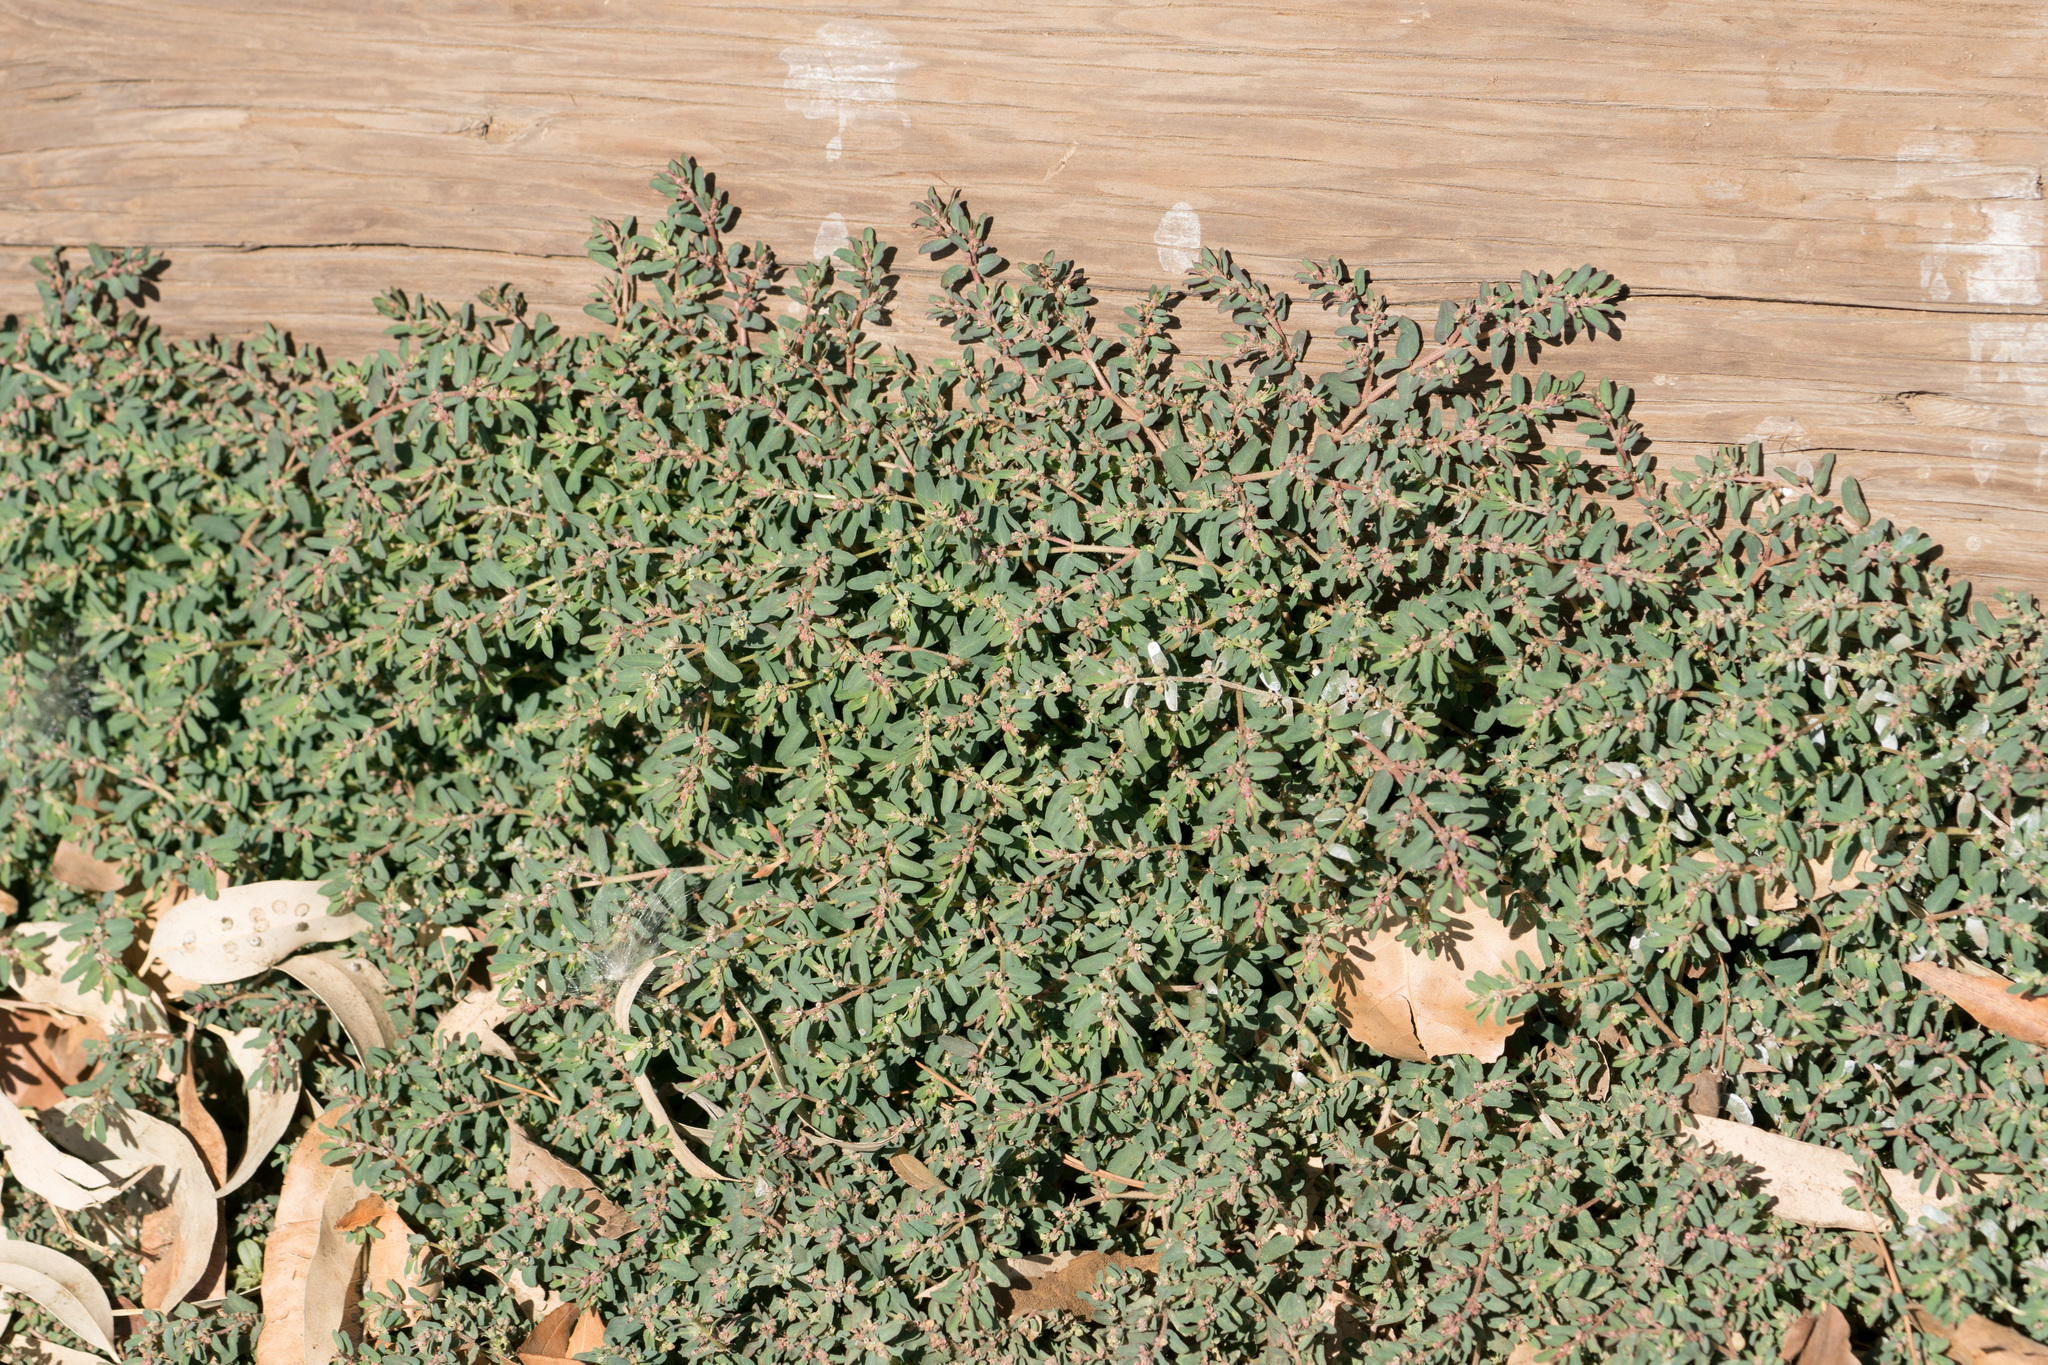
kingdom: Plantae
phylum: Tracheophyta
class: Magnoliopsida
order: Malpighiales
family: Euphorbiaceae
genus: Euphorbia
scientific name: Euphorbia maculata
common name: Spotted spurge
